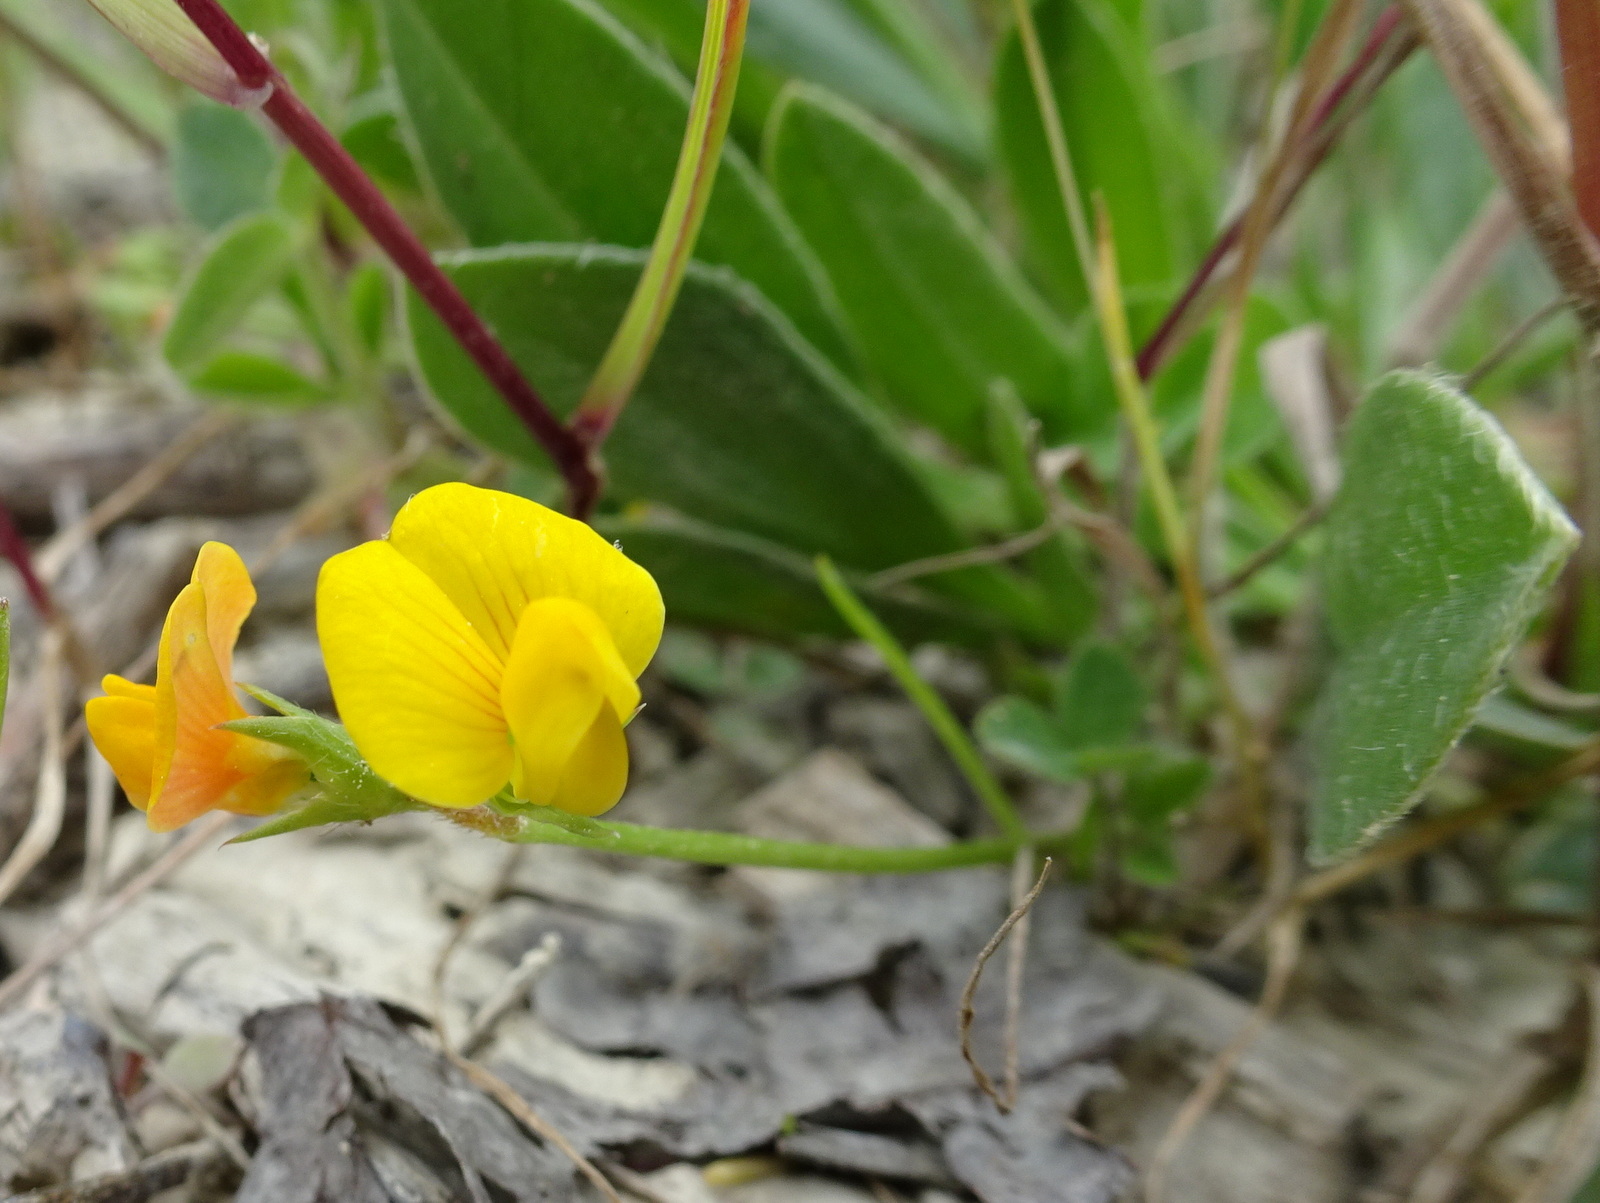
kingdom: Plantae
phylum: Tracheophyta
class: Magnoliopsida
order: Fabales
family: Fabaceae
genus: Scorpiurus
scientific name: Scorpiurus muricatus
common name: Caterpillar-plant
